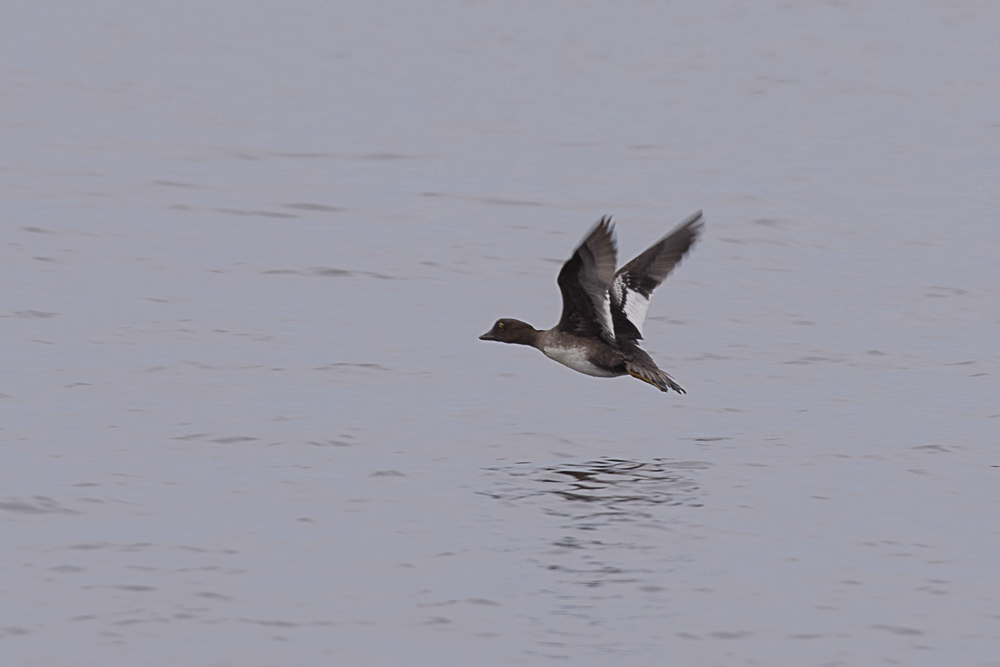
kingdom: Animalia
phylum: Chordata
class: Aves
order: Anseriformes
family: Anatidae
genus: Bucephala
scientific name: Bucephala clangula
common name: Common goldeneye
